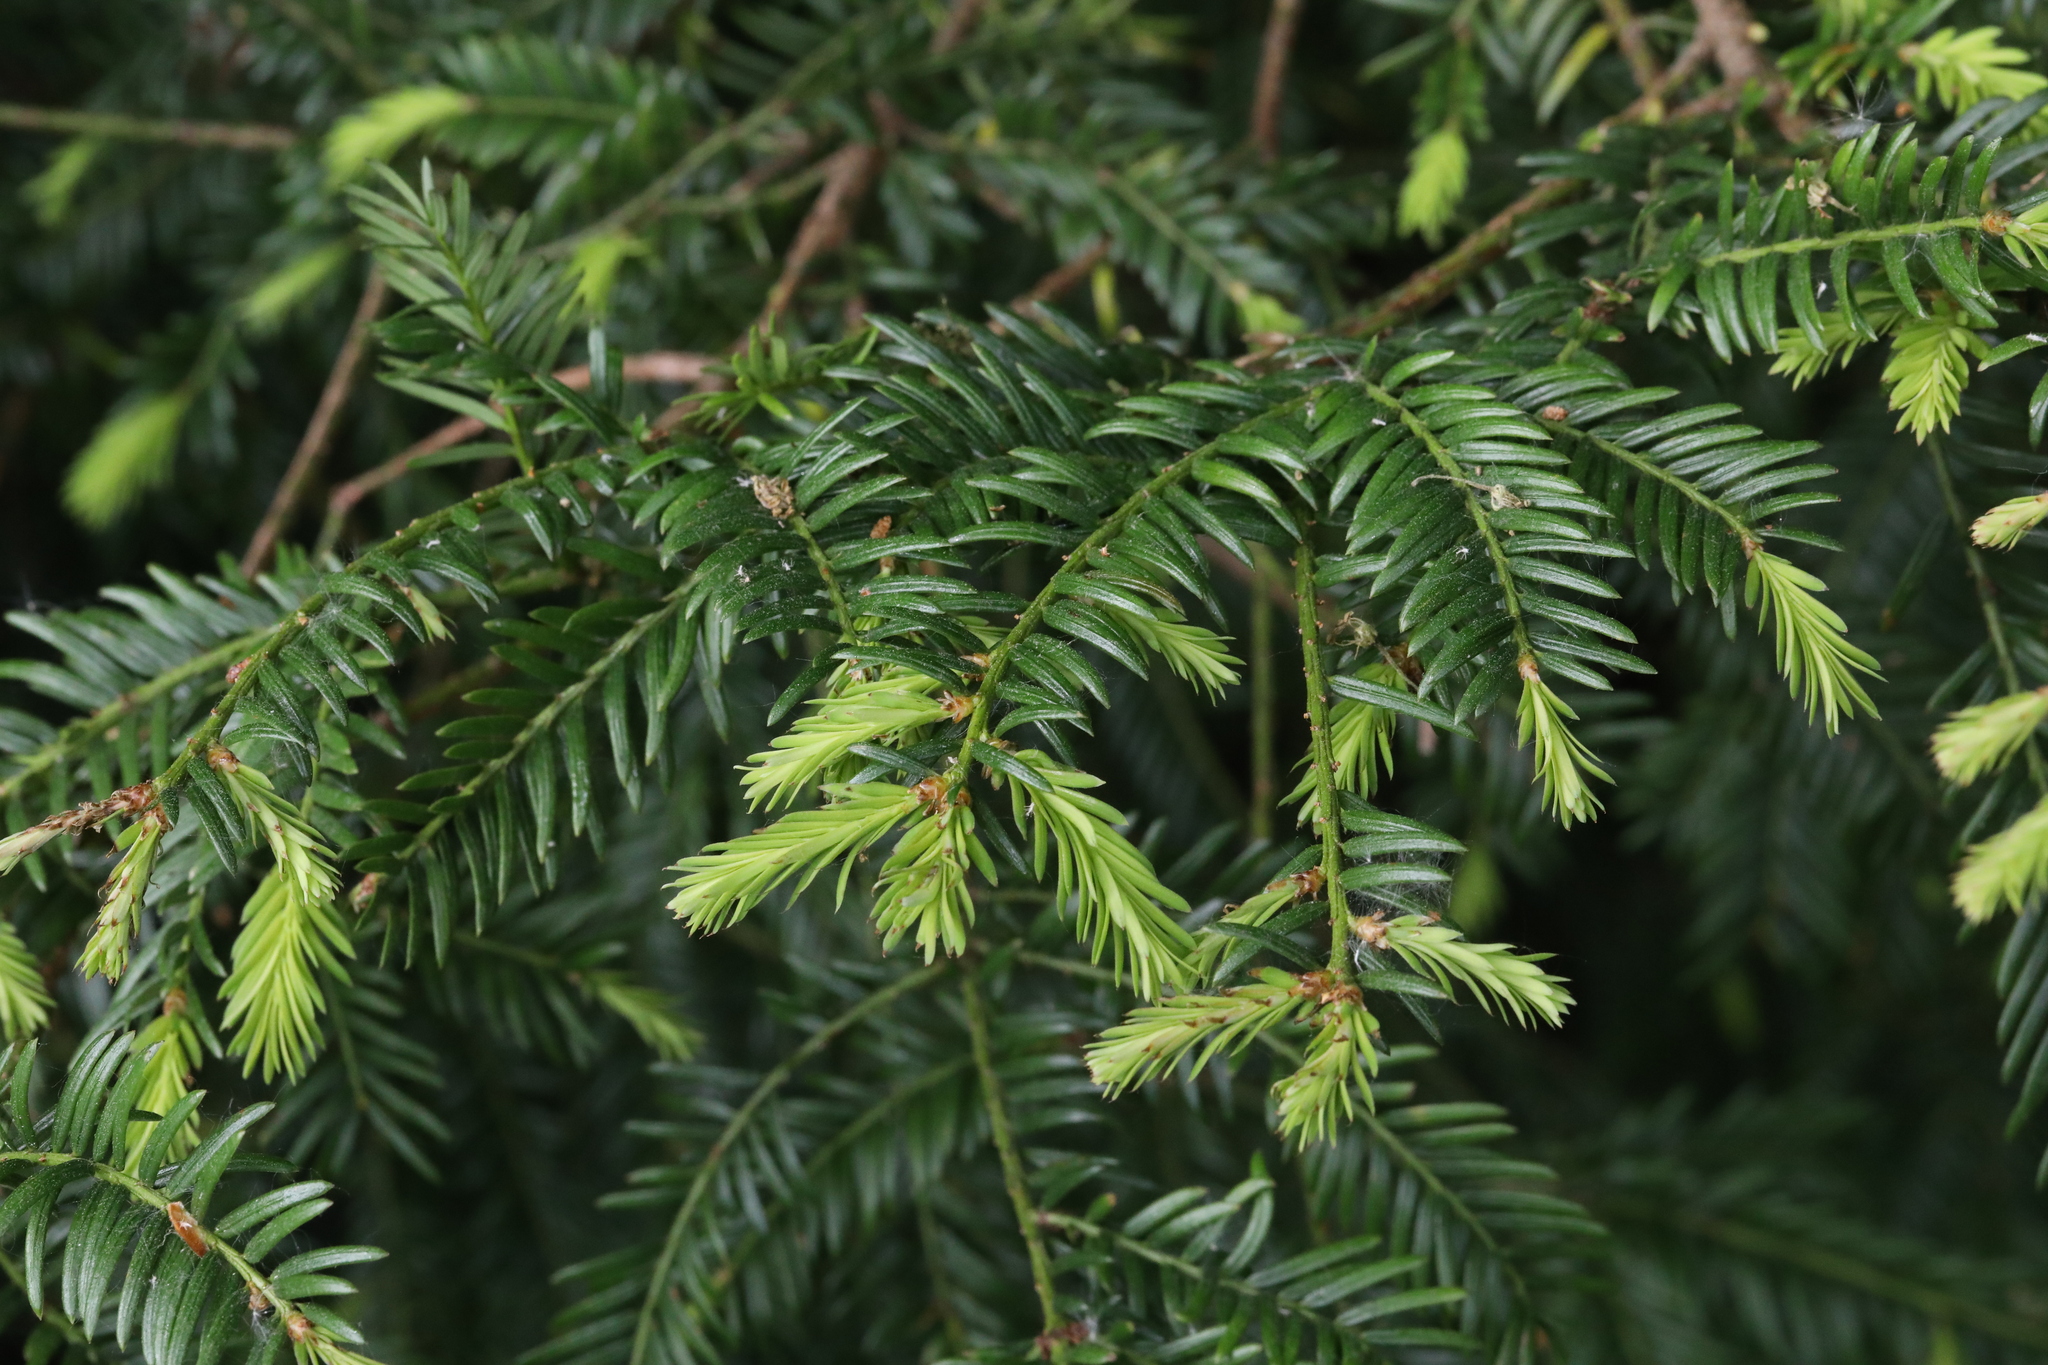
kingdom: Plantae
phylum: Tracheophyta
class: Pinopsida
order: Pinales
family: Taxaceae
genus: Taxus
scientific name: Taxus baccata
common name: Yew
